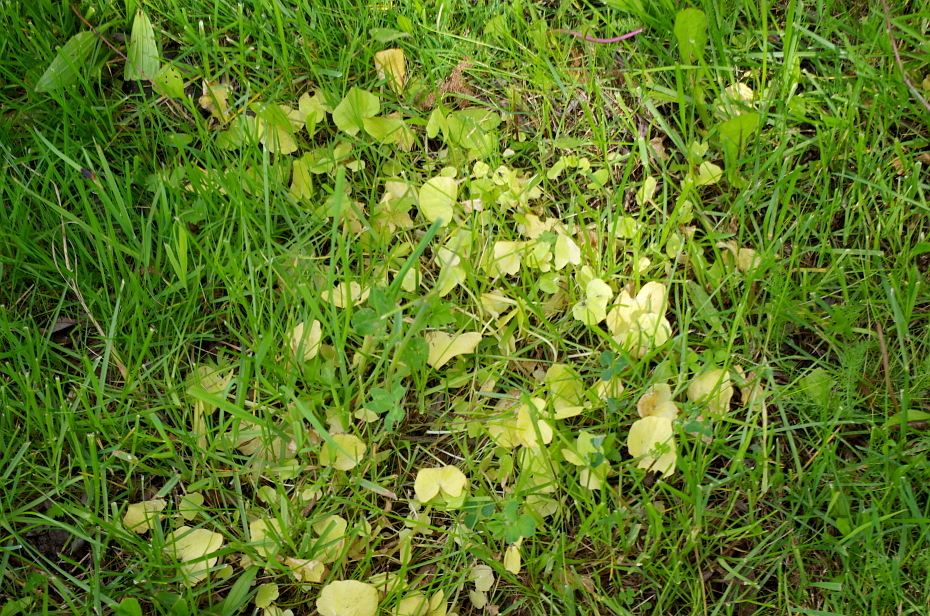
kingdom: Plantae
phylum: Tracheophyta
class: Magnoliopsida
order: Ranunculales
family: Ranunculaceae
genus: Ficaria
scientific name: Ficaria verna
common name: Lesser celandine
